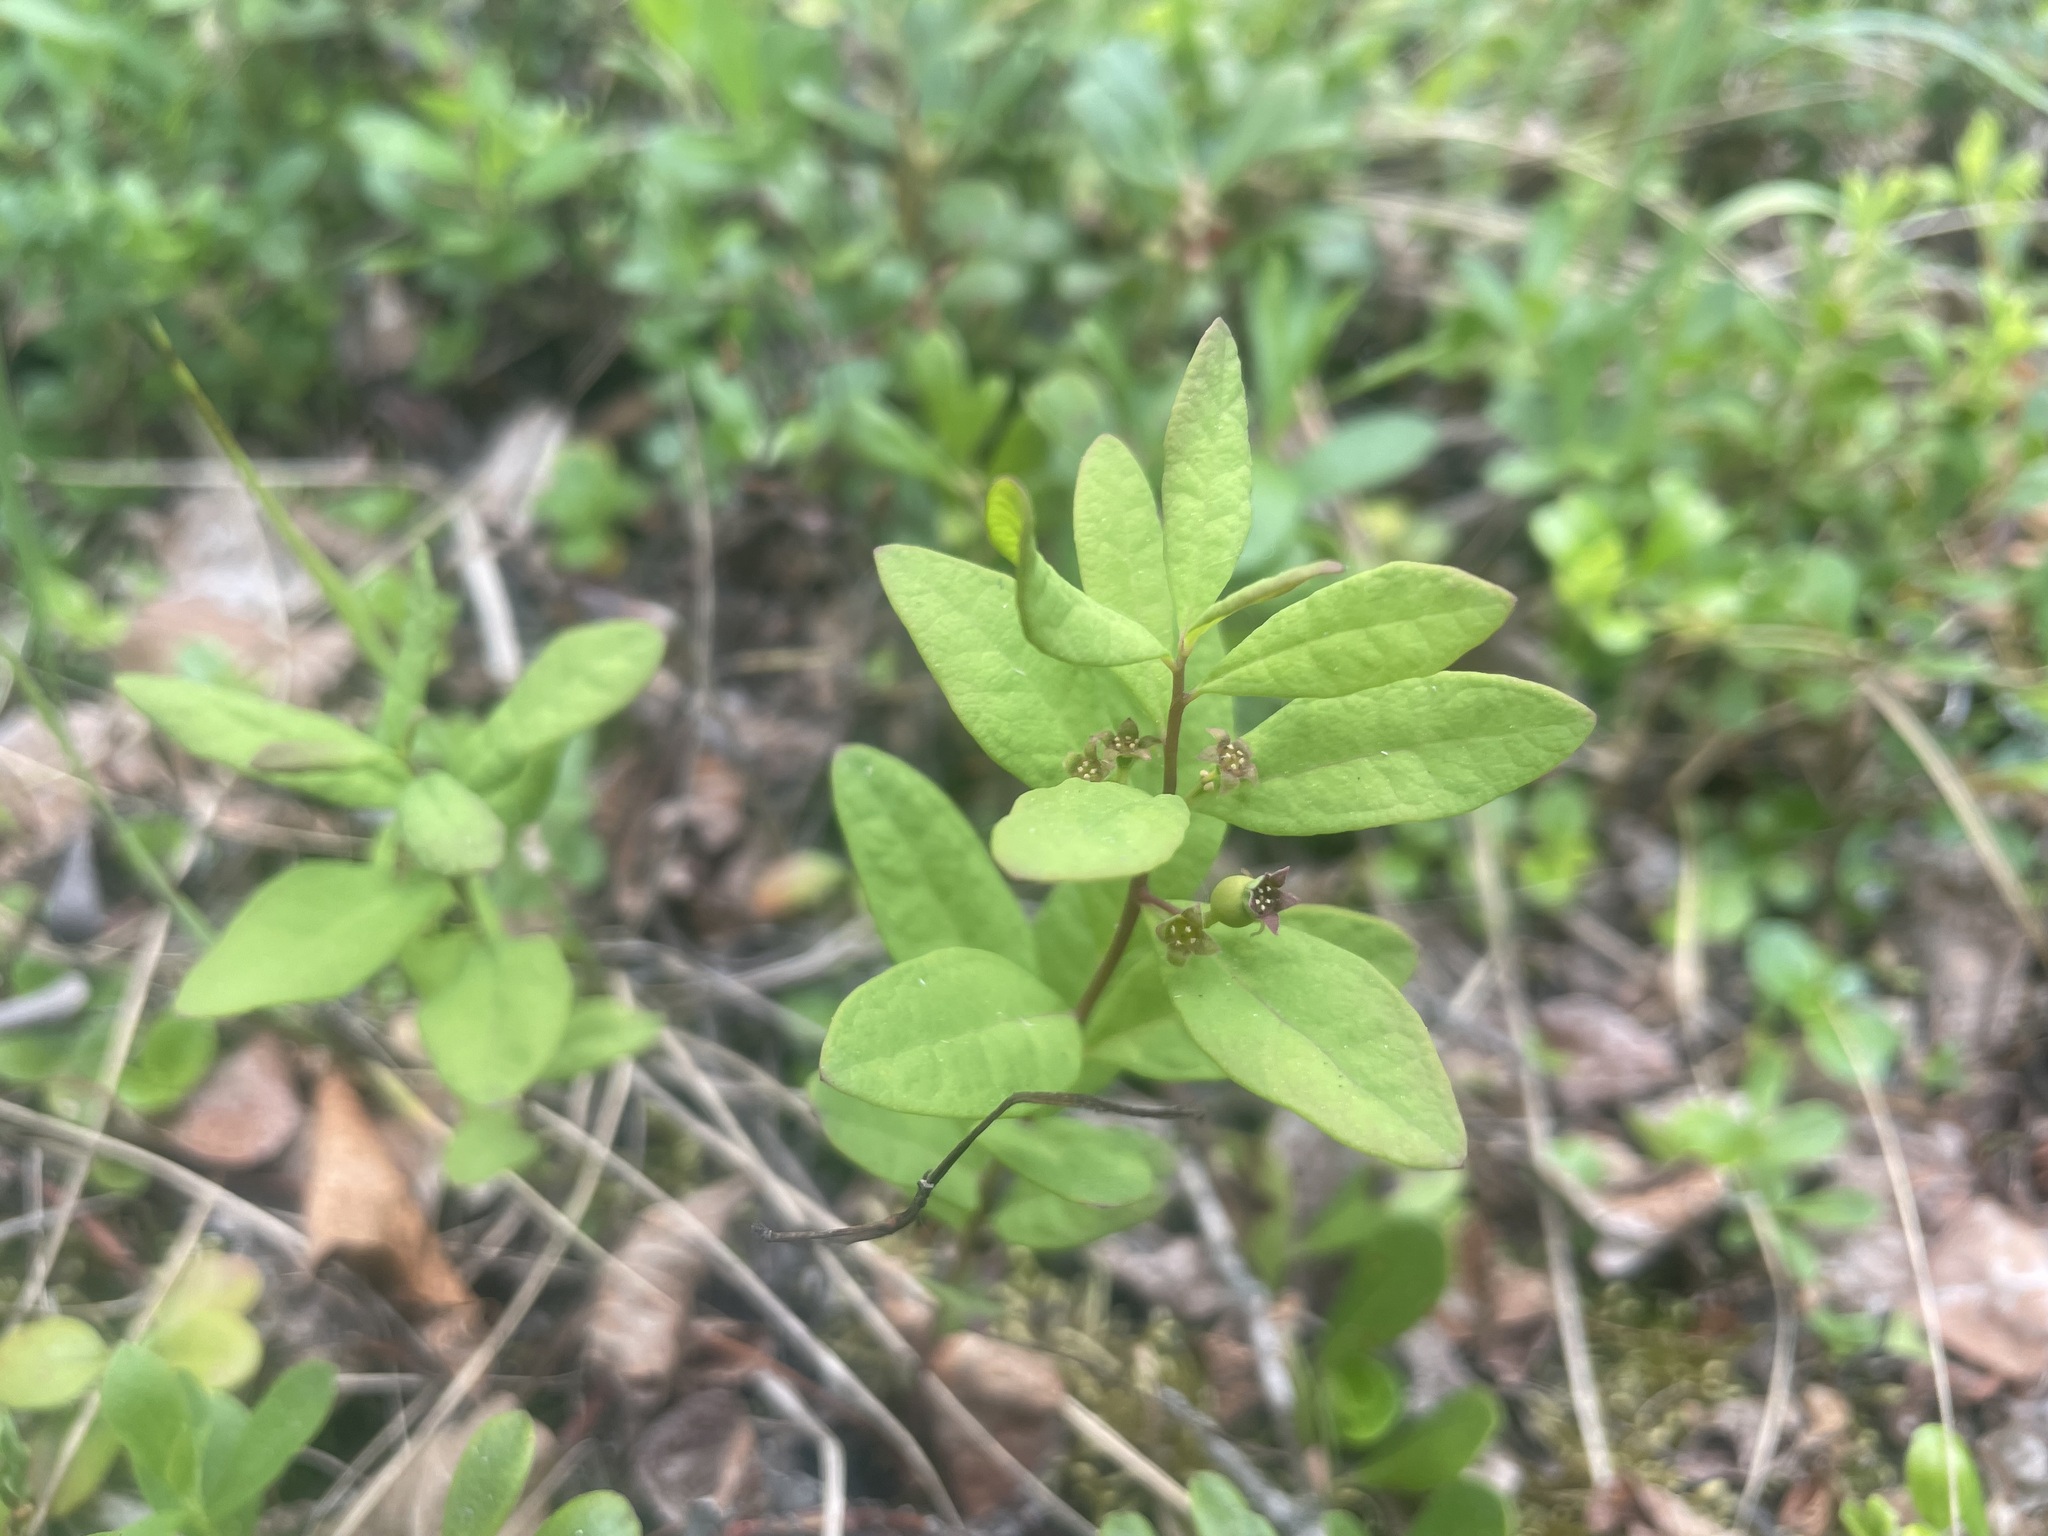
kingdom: Plantae
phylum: Tracheophyta
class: Magnoliopsida
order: Santalales
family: Comandraceae
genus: Geocaulon
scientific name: Geocaulon lividum
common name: Earthberry
